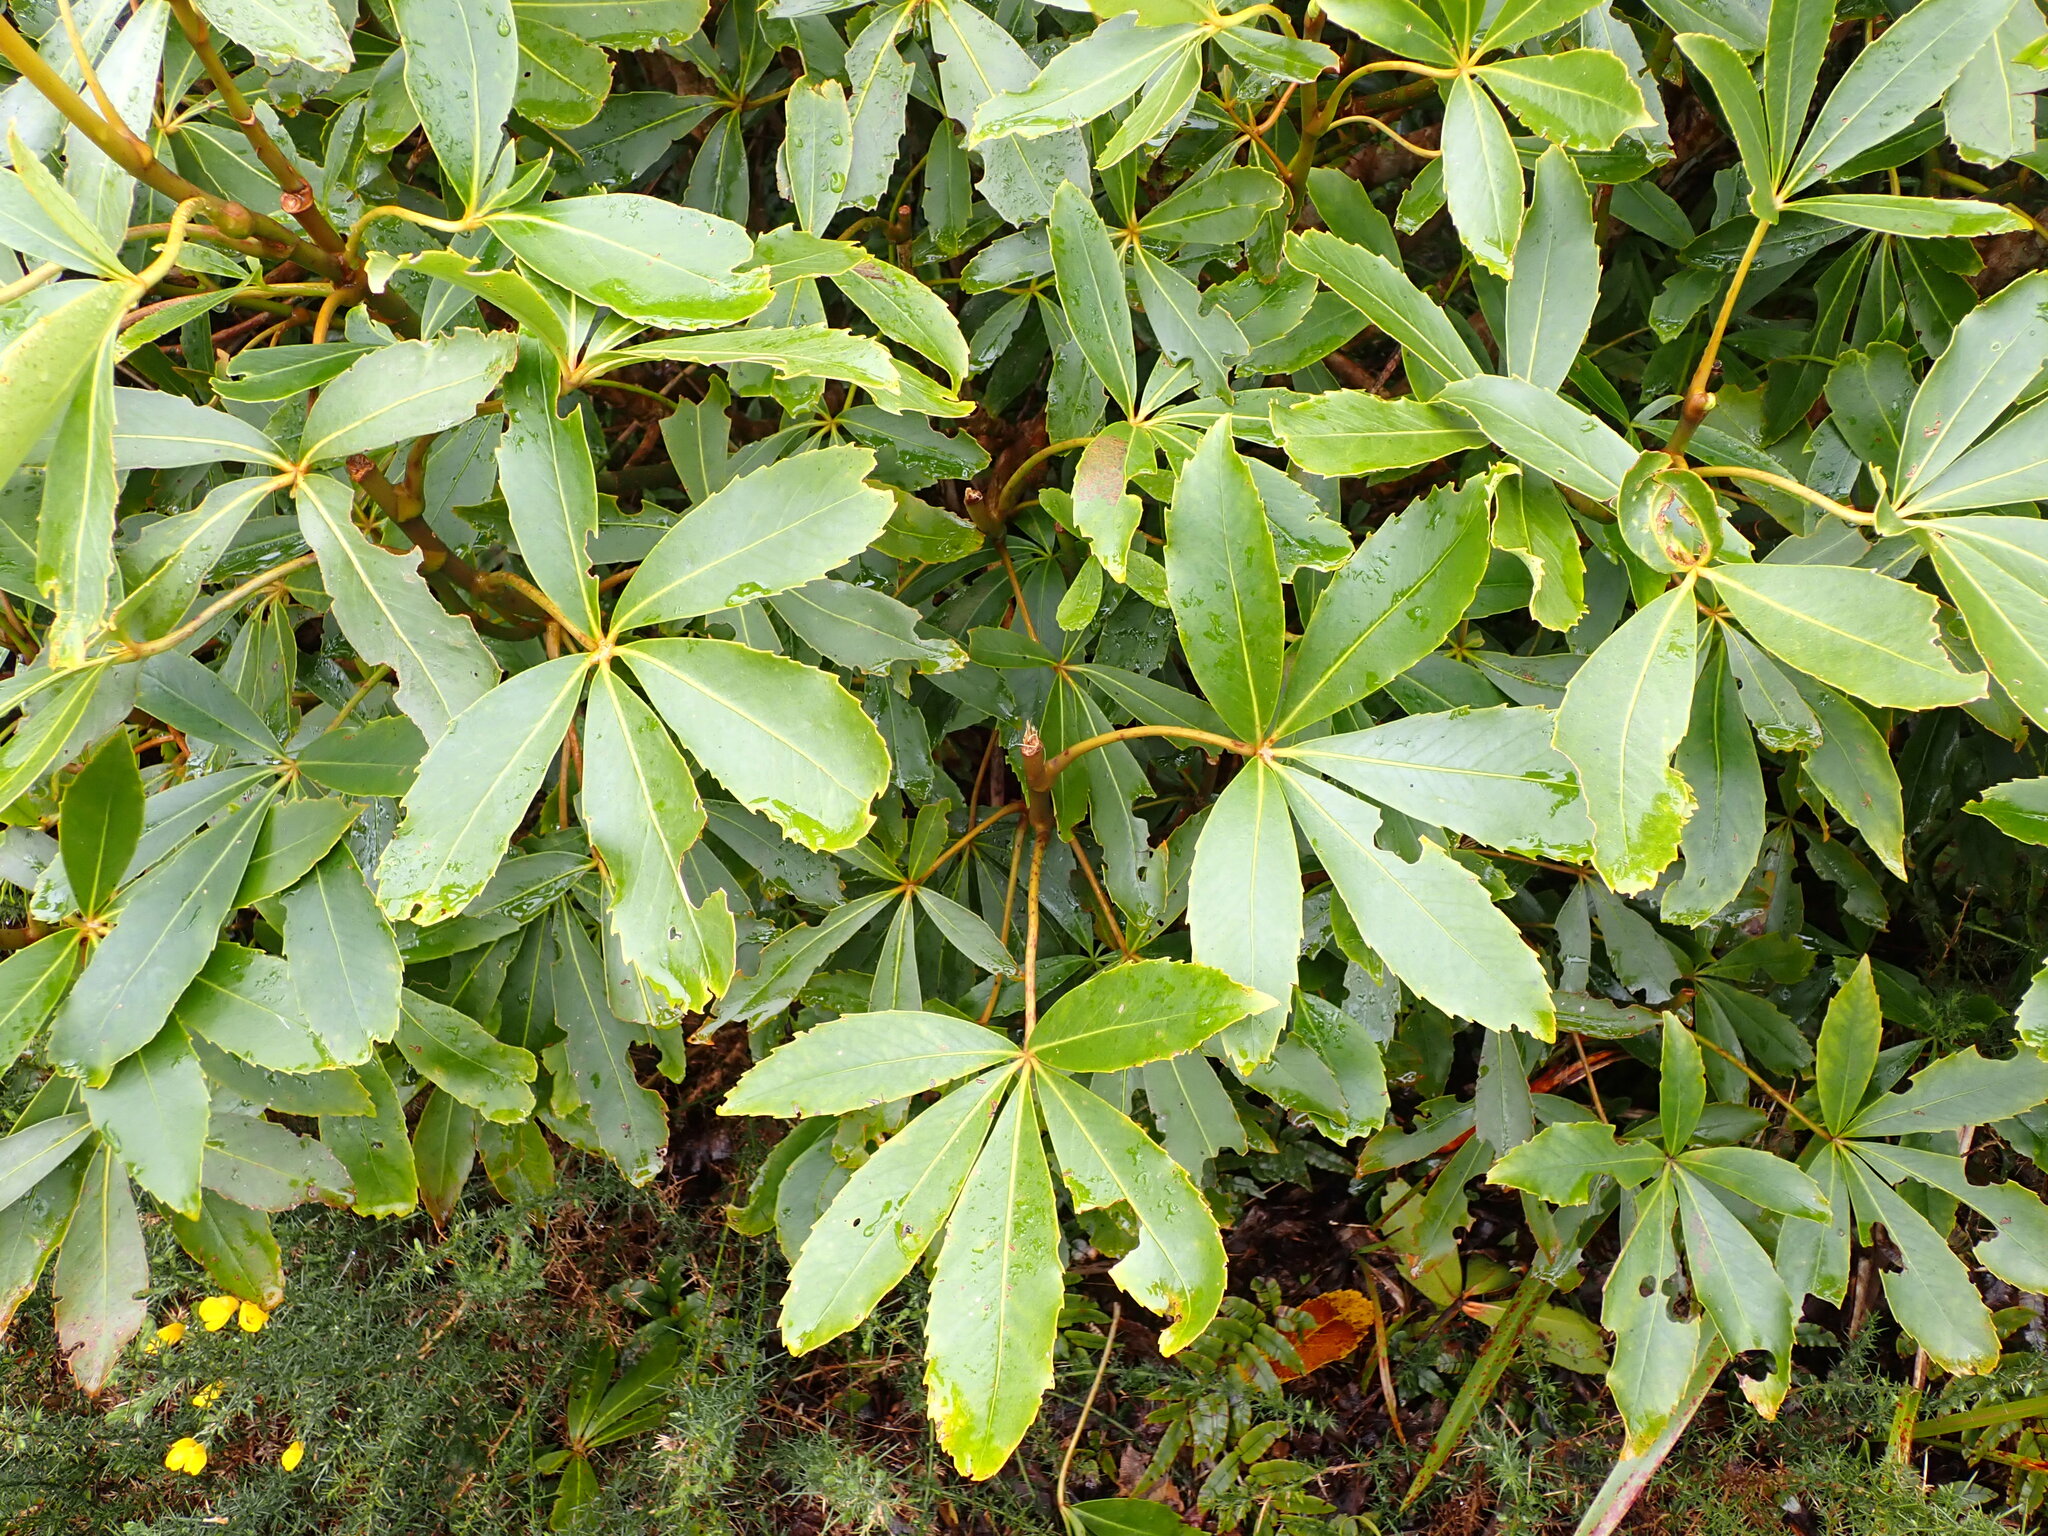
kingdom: Plantae
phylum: Tracheophyta
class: Magnoliopsida
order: Apiales
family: Araliaceae
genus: Neopanax
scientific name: Neopanax colensoi
